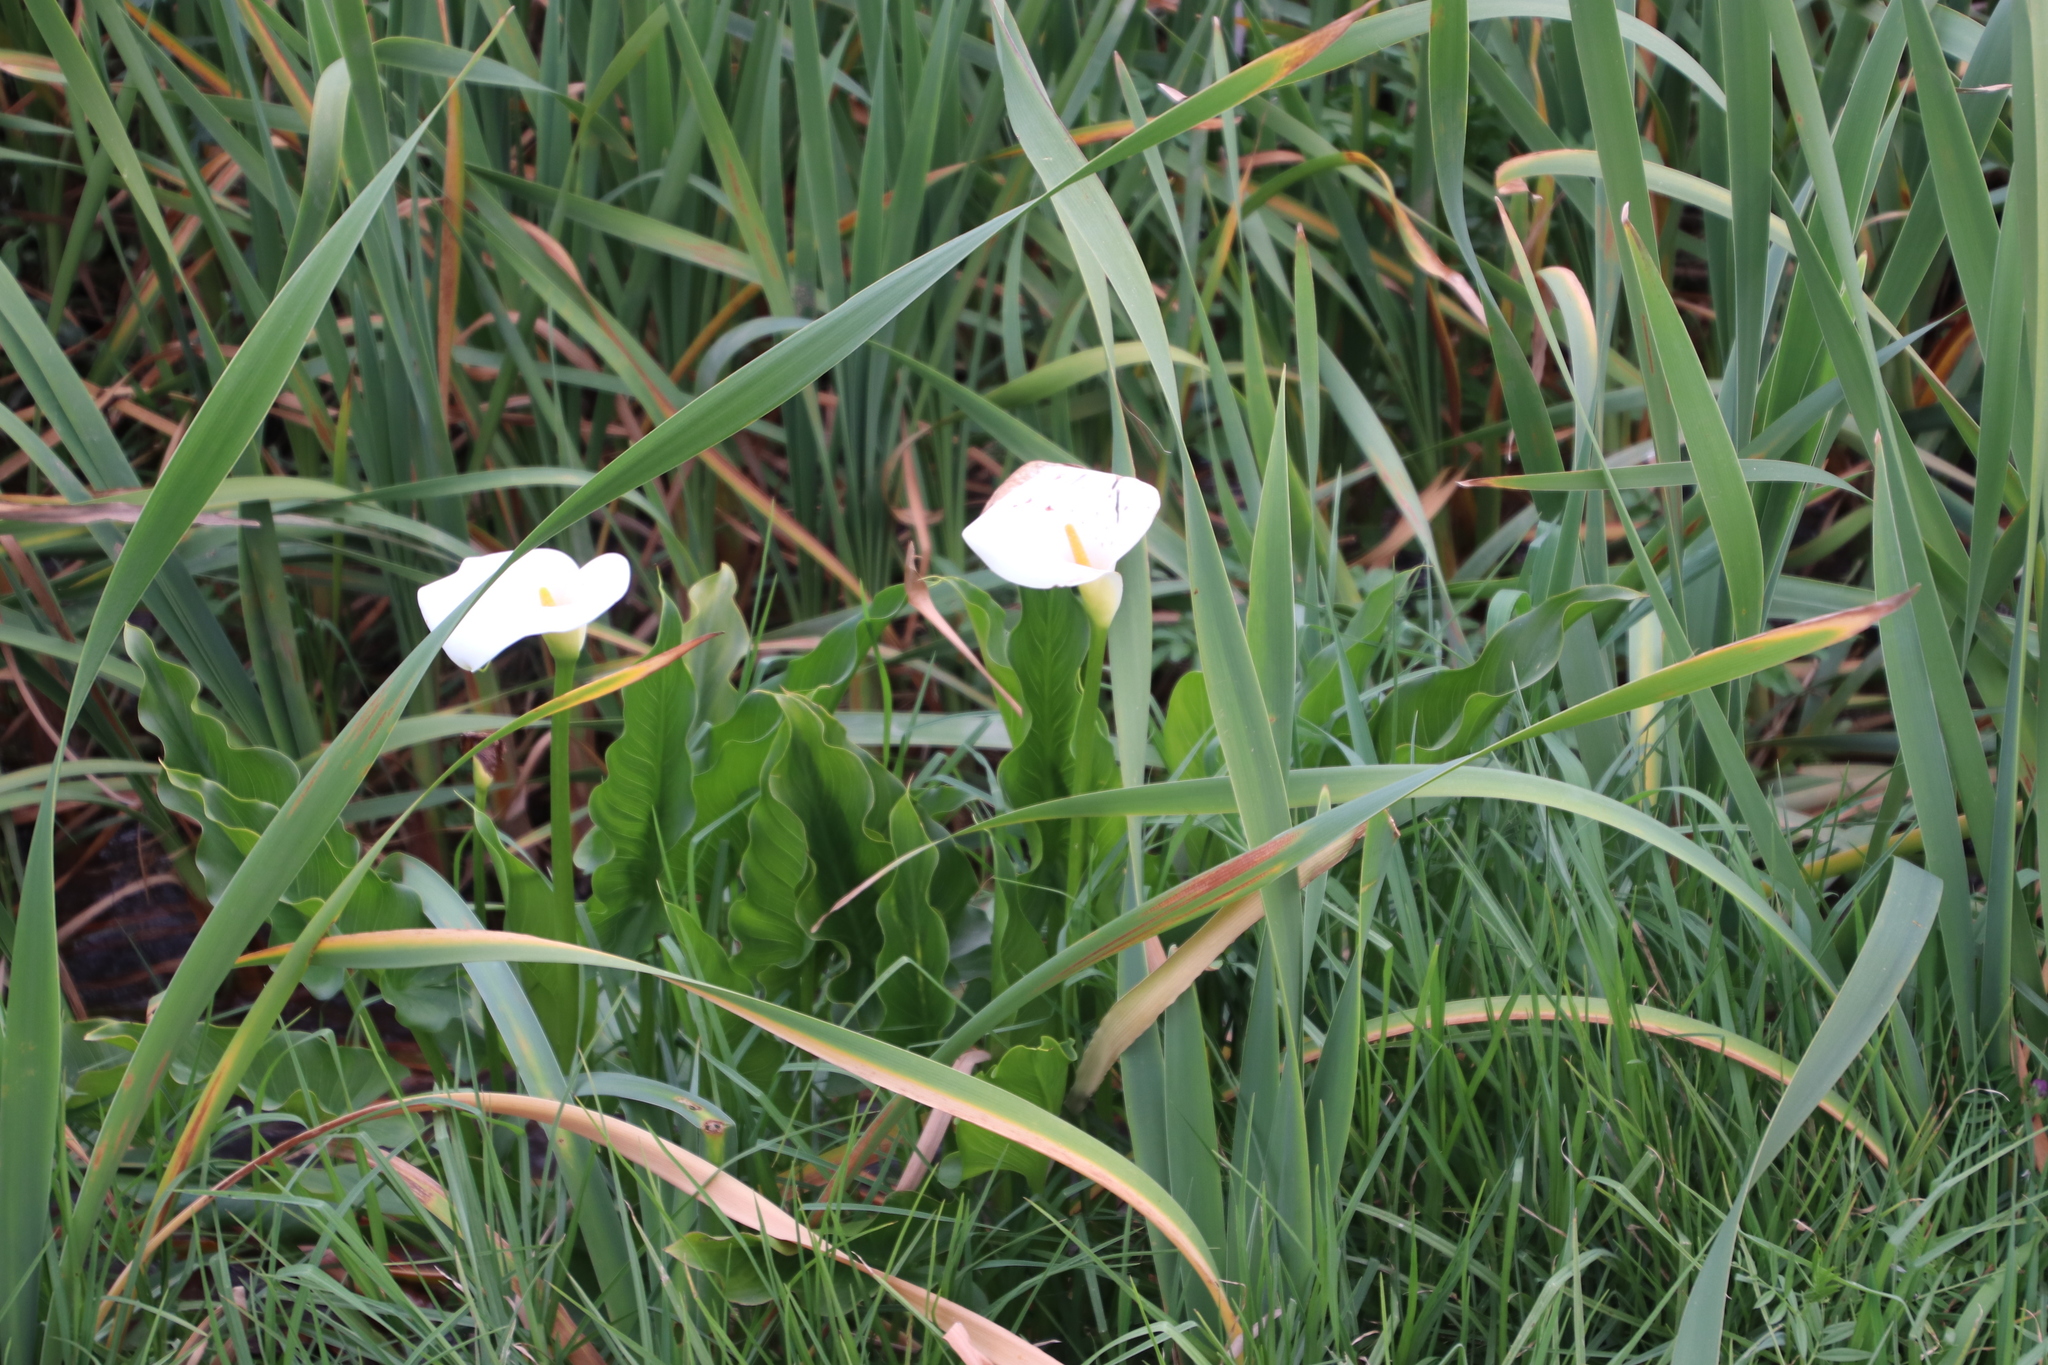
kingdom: Plantae
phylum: Tracheophyta
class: Liliopsida
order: Alismatales
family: Araceae
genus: Zantedeschia
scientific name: Zantedeschia aethiopica
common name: Altar-lily
